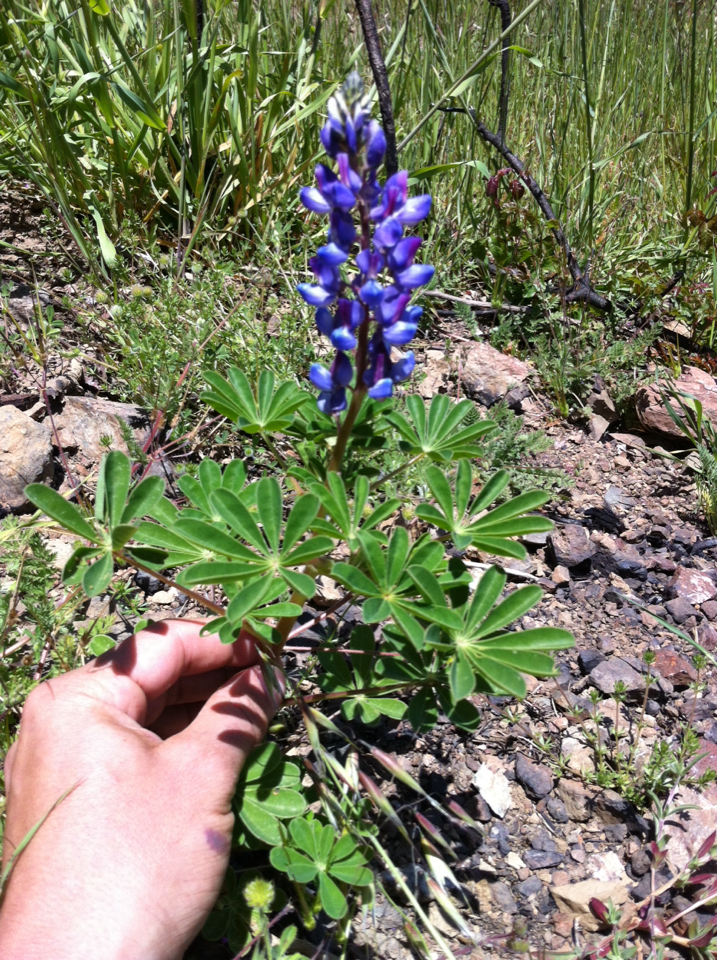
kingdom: Plantae
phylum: Tracheophyta
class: Magnoliopsida
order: Fabales
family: Fabaceae
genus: Lupinus
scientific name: Lupinus succulentus
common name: Arroyo lupine
